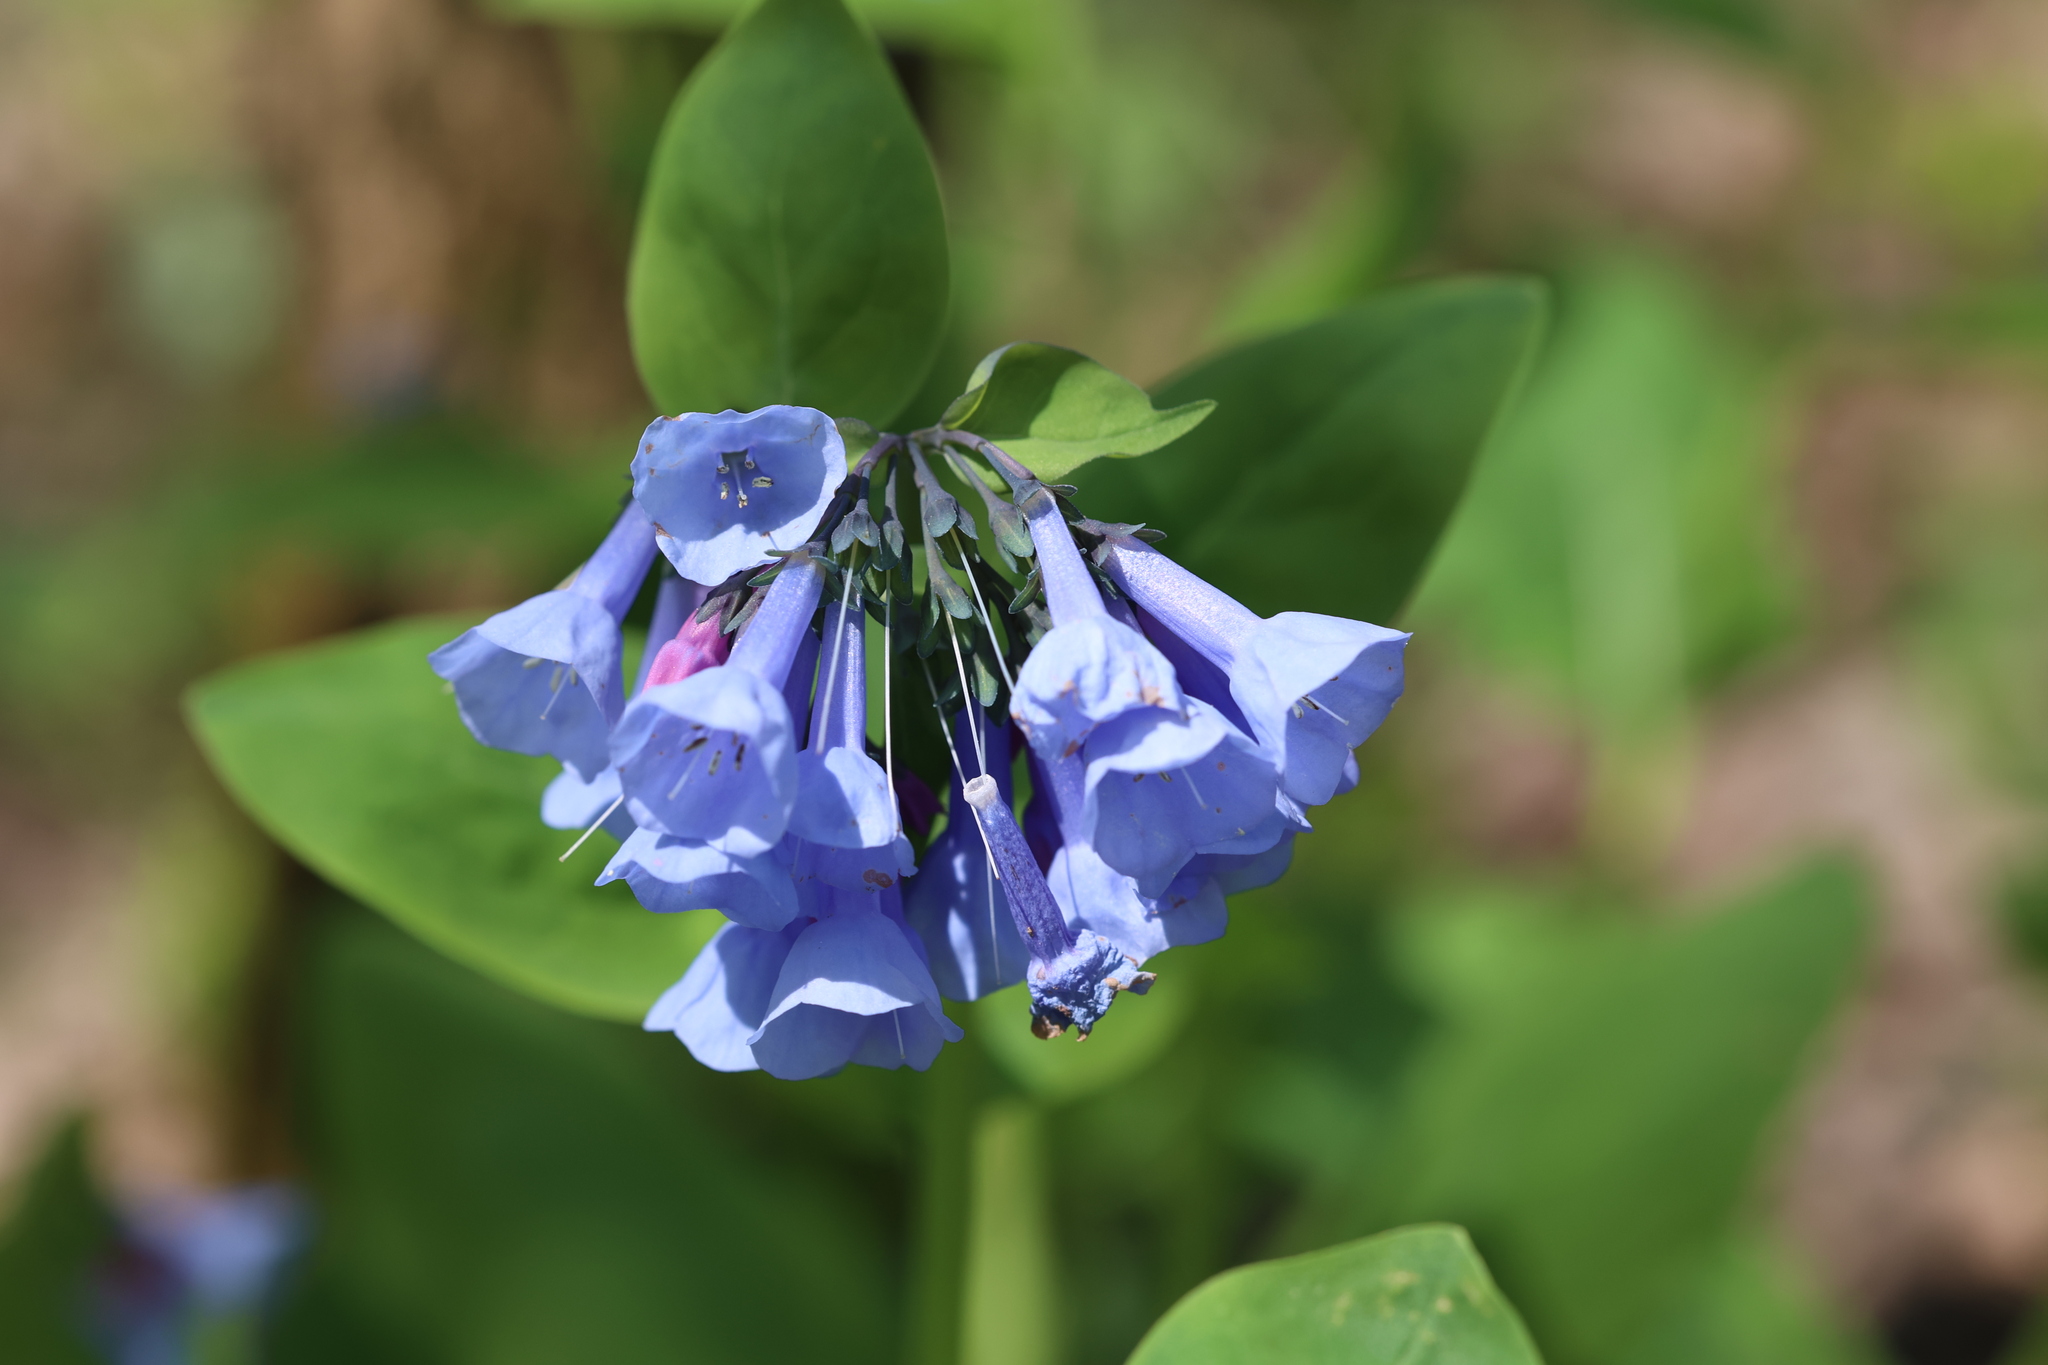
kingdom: Plantae
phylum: Tracheophyta
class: Magnoliopsida
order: Boraginales
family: Boraginaceae
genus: Mertensia
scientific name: Mertensia virginica
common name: Virginia bluebells
